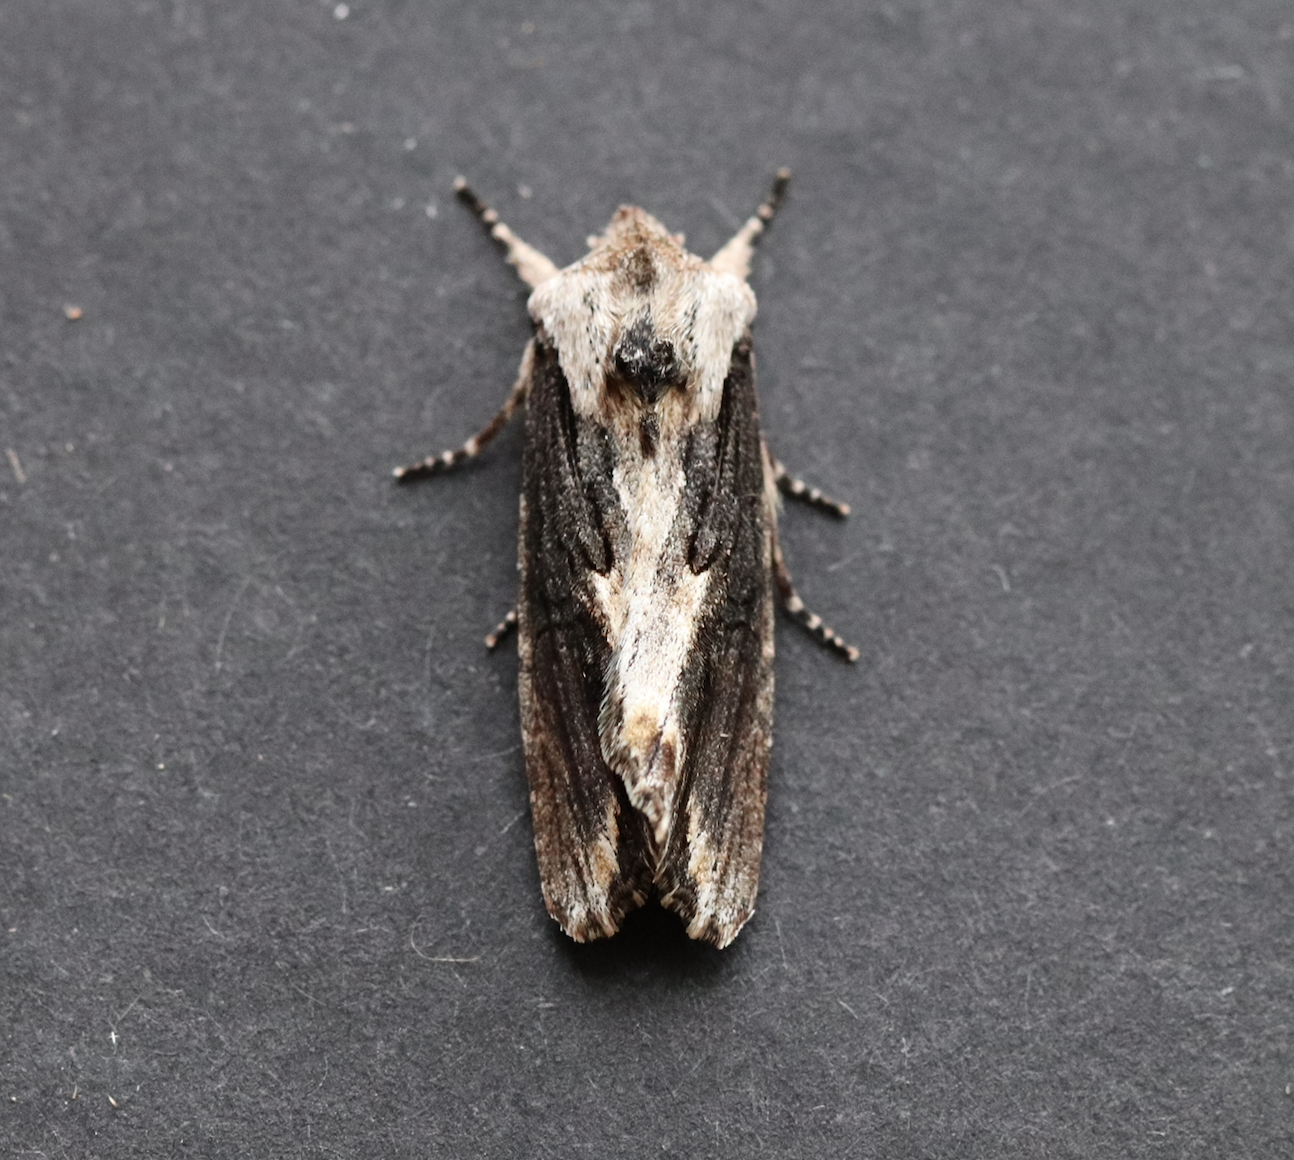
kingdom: Animalia
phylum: Arthropoda
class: Insecta
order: Lepidoptera
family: Noctuidae
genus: Egira
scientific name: Egira conspicillaris
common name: Silver cloud
